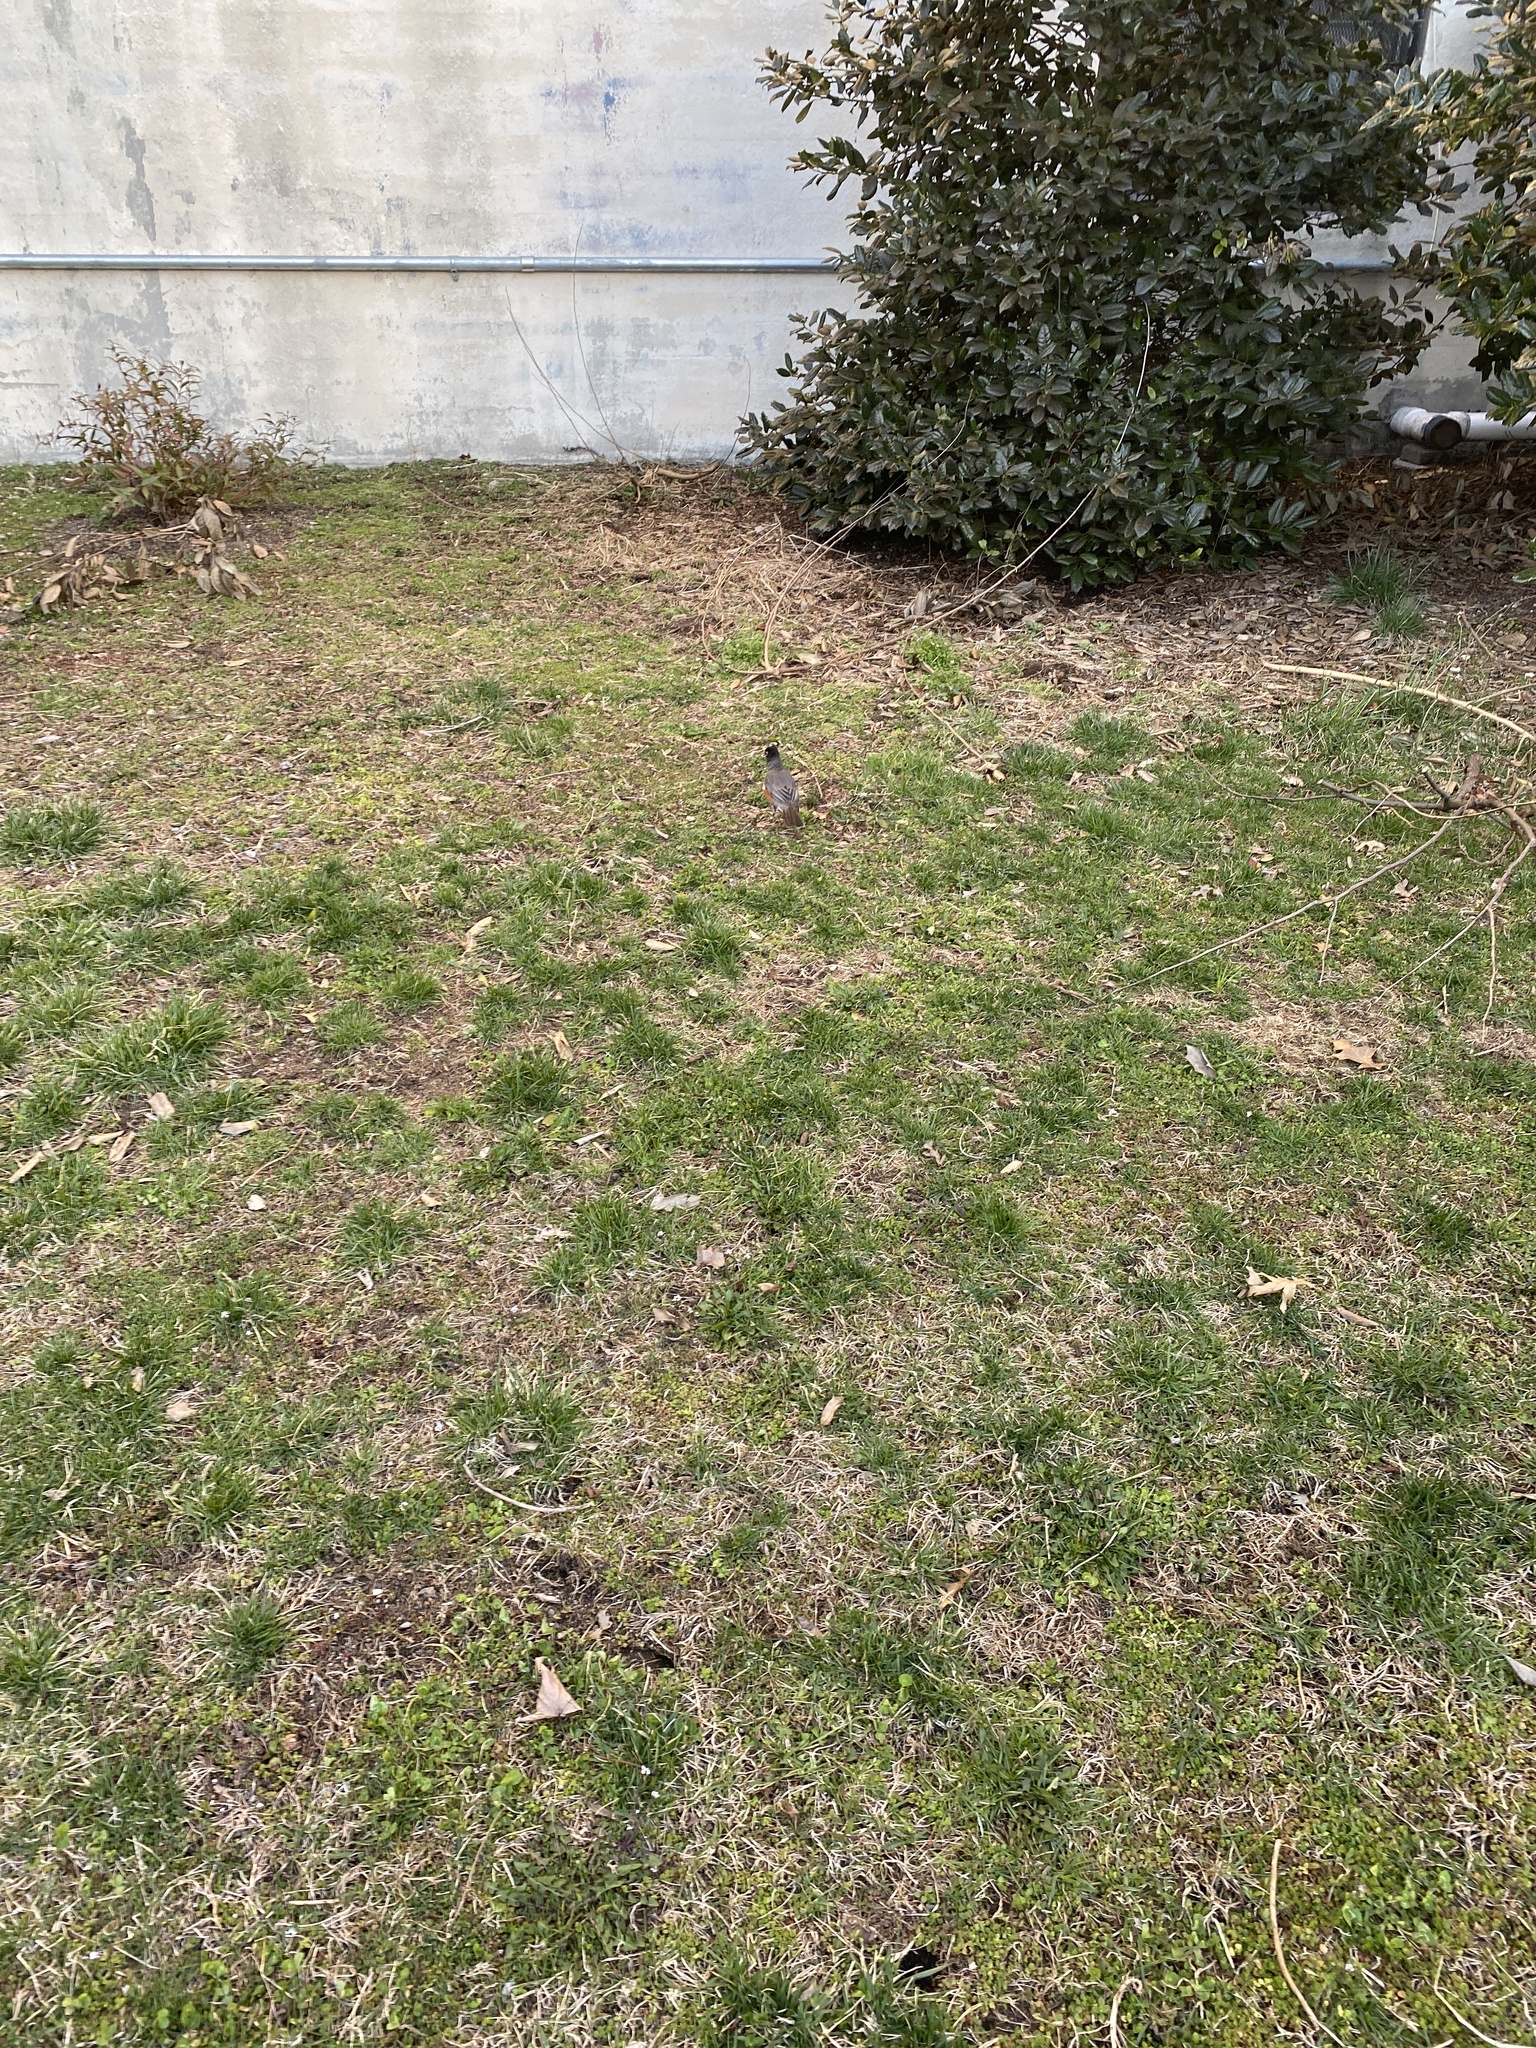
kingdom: Animalia
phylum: Chordata
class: Aves
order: Passeriformes
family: Turdidae
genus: Turdus
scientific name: Turdus migratorius
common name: American robin
